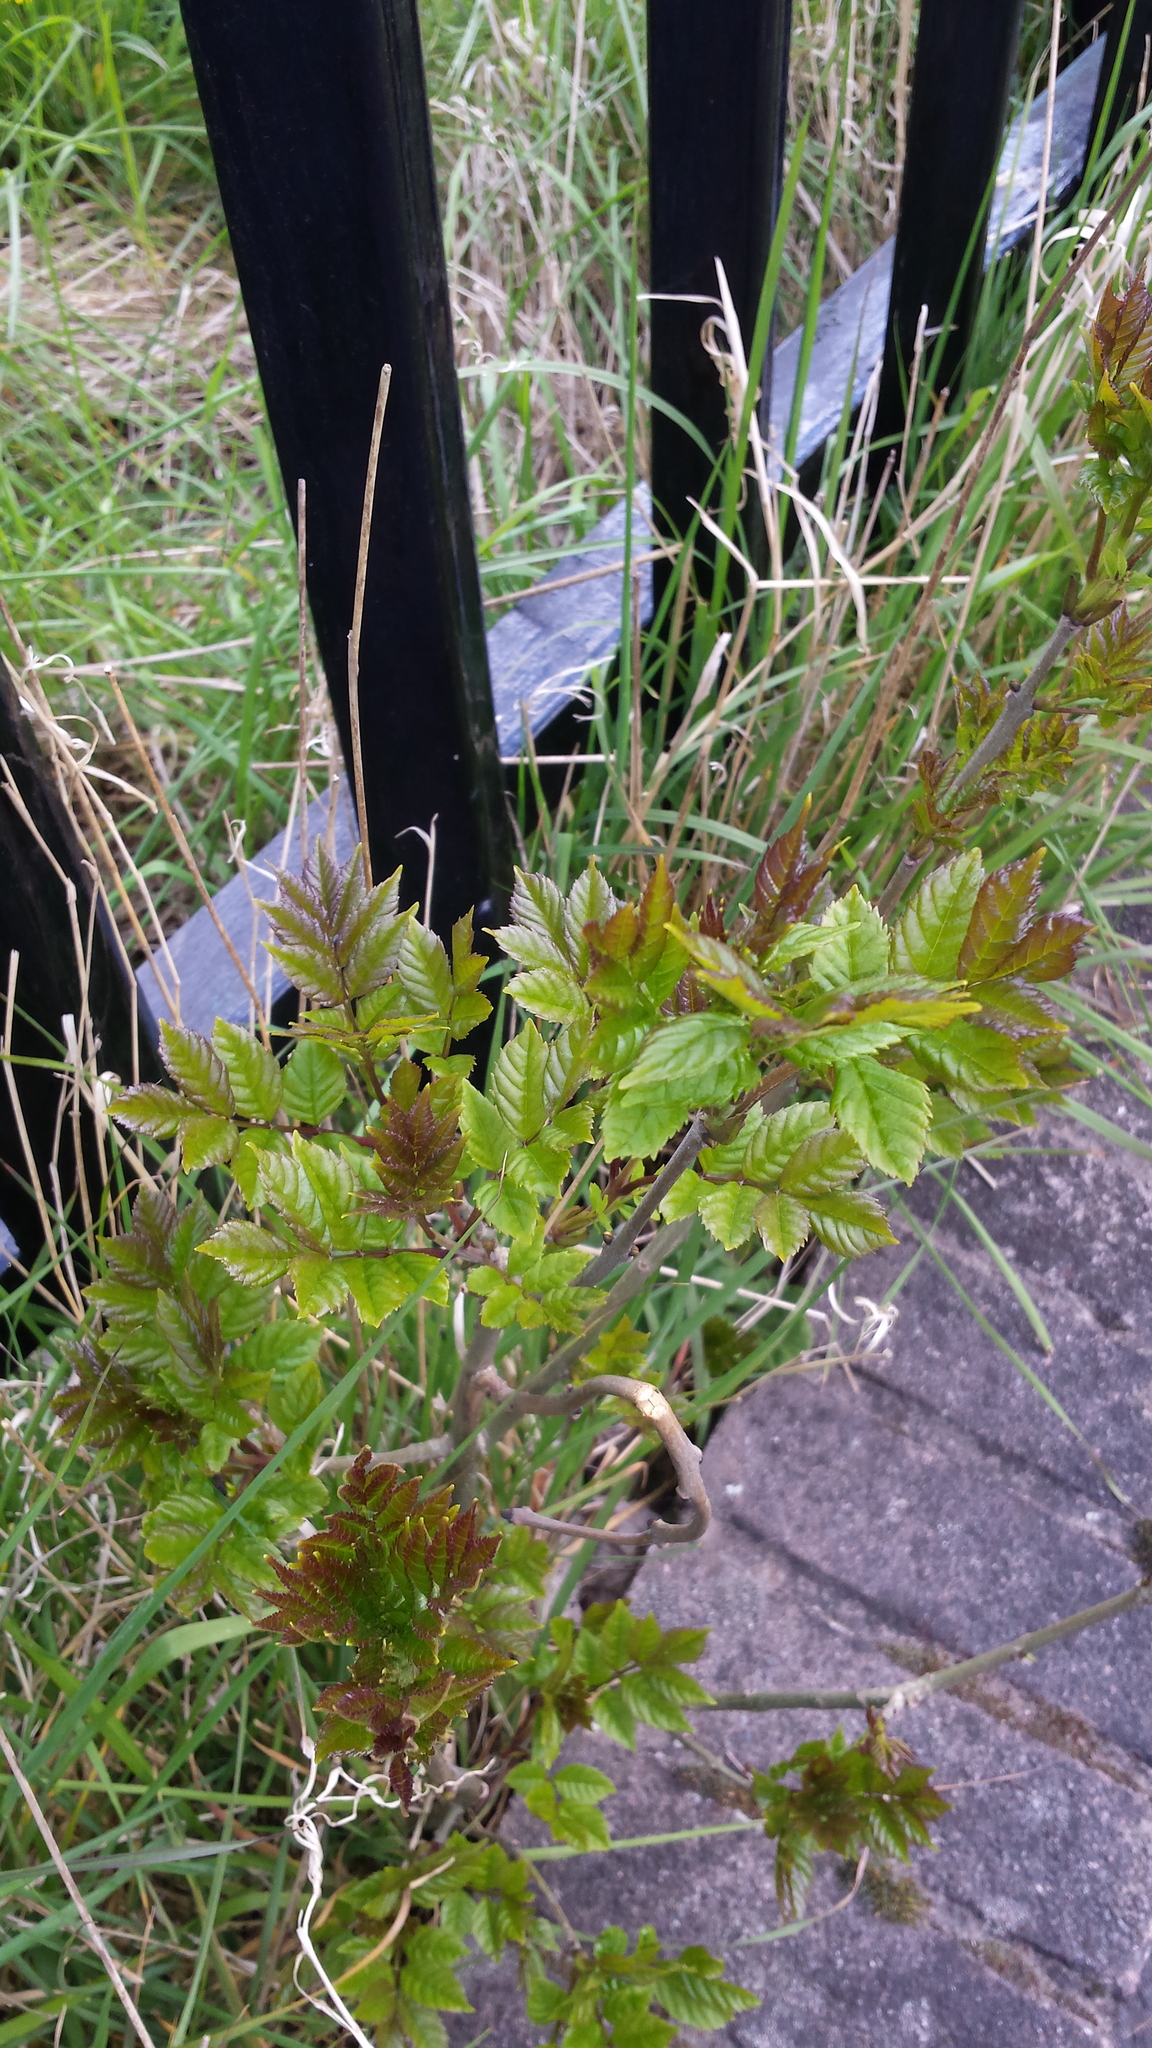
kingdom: Plantae
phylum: Tracheophyta
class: Magnoliopsida
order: Lamiales
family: Oleaceae
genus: Fraxinus
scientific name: Fraxinus excelsior
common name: European ash
